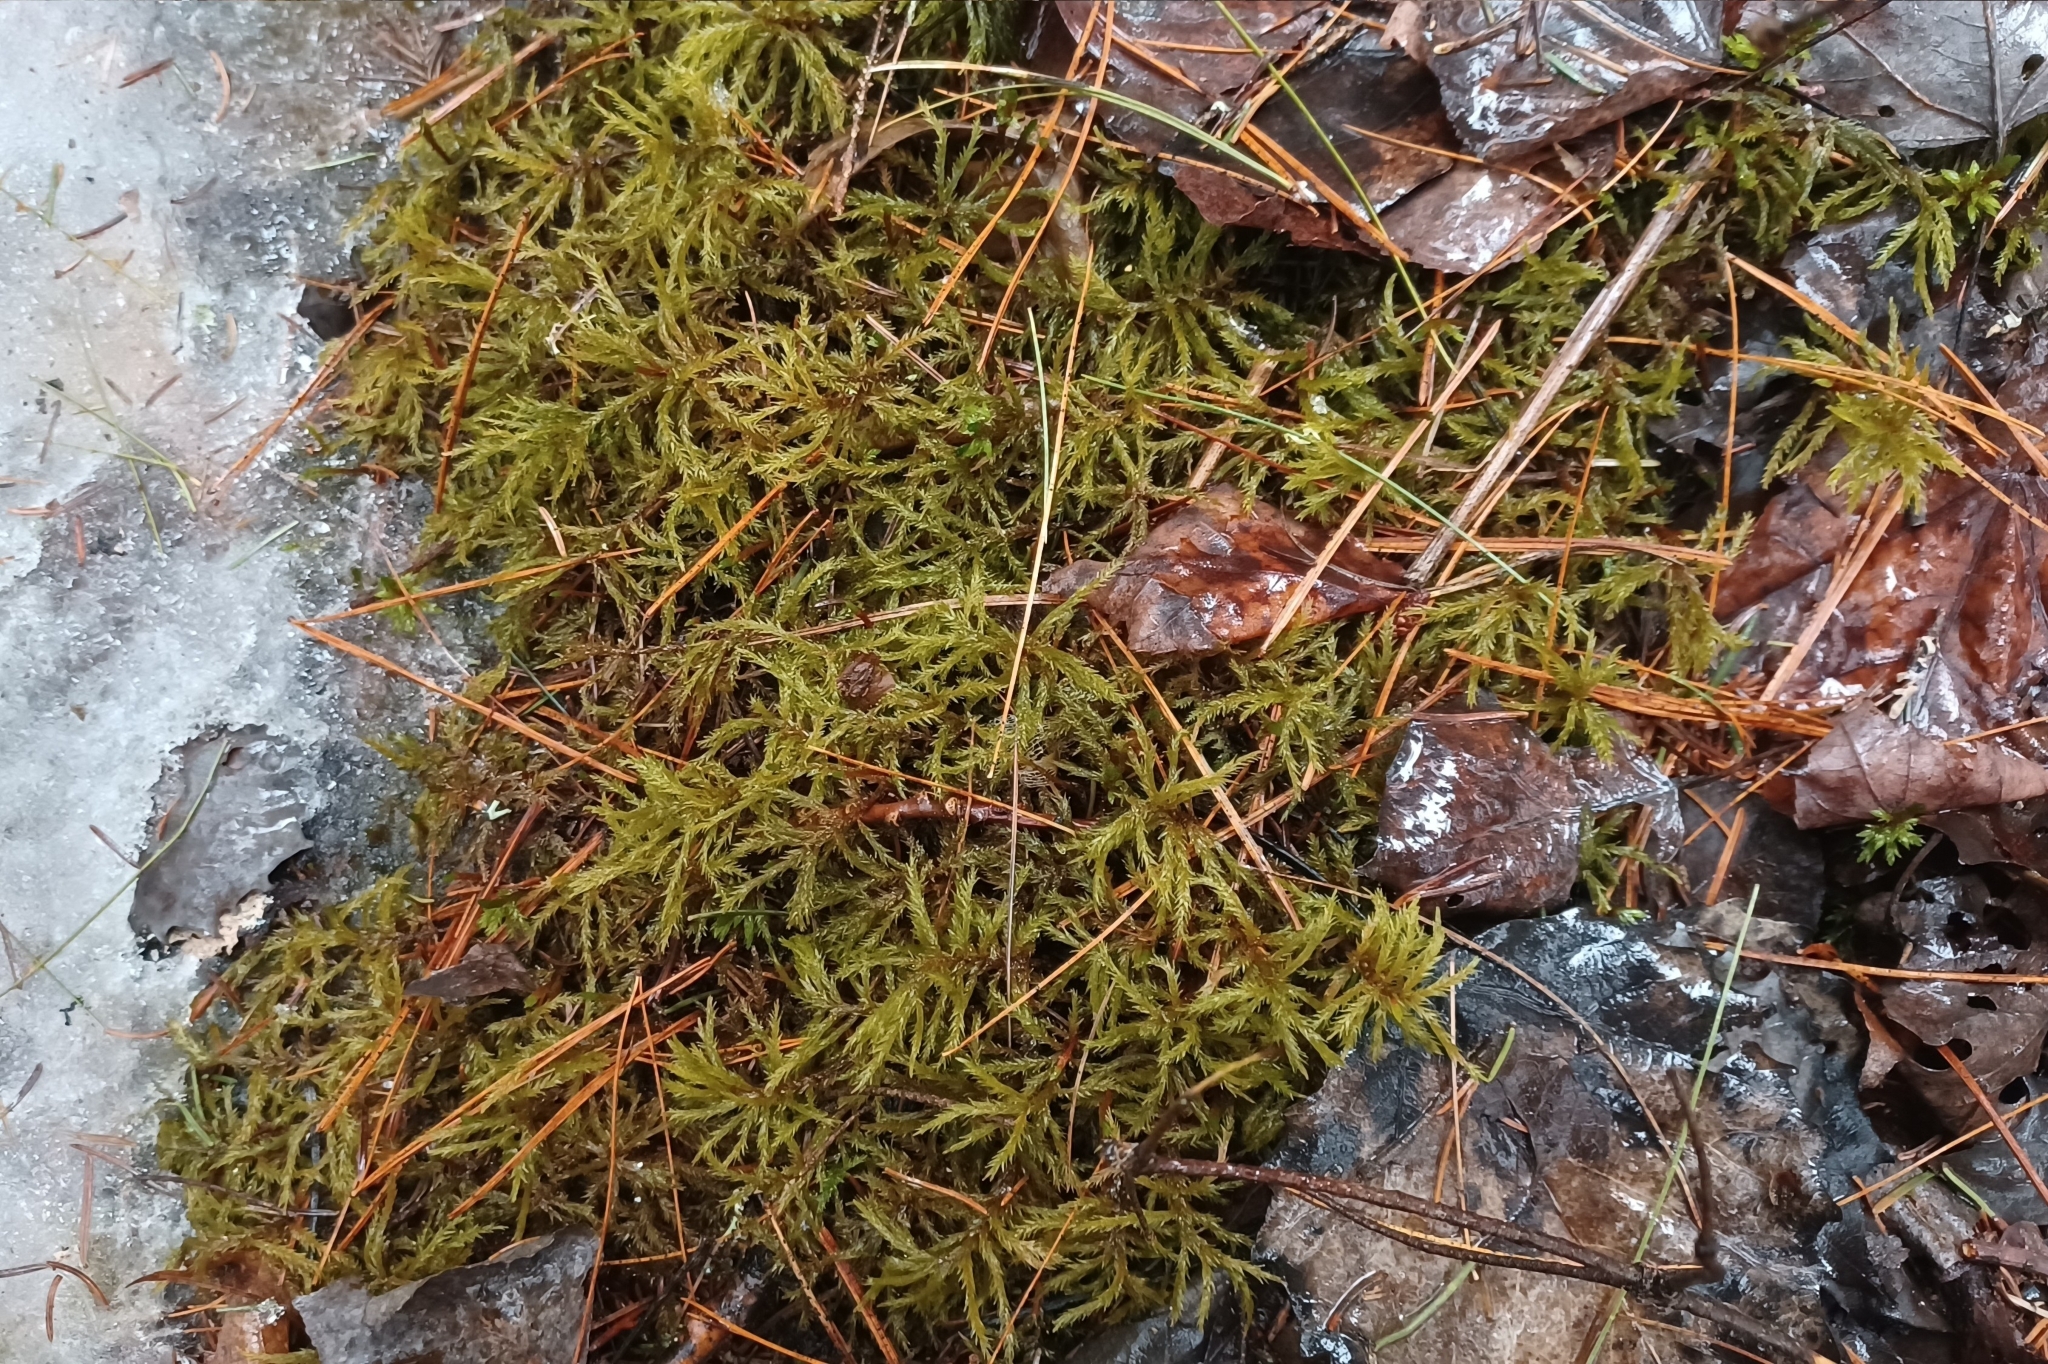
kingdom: Plantae
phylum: Bryophyta
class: Bryopsida
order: Hypnales
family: Climaciaceae
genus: Climacium
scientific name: Climacium dendroides
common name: Northern tree moss
